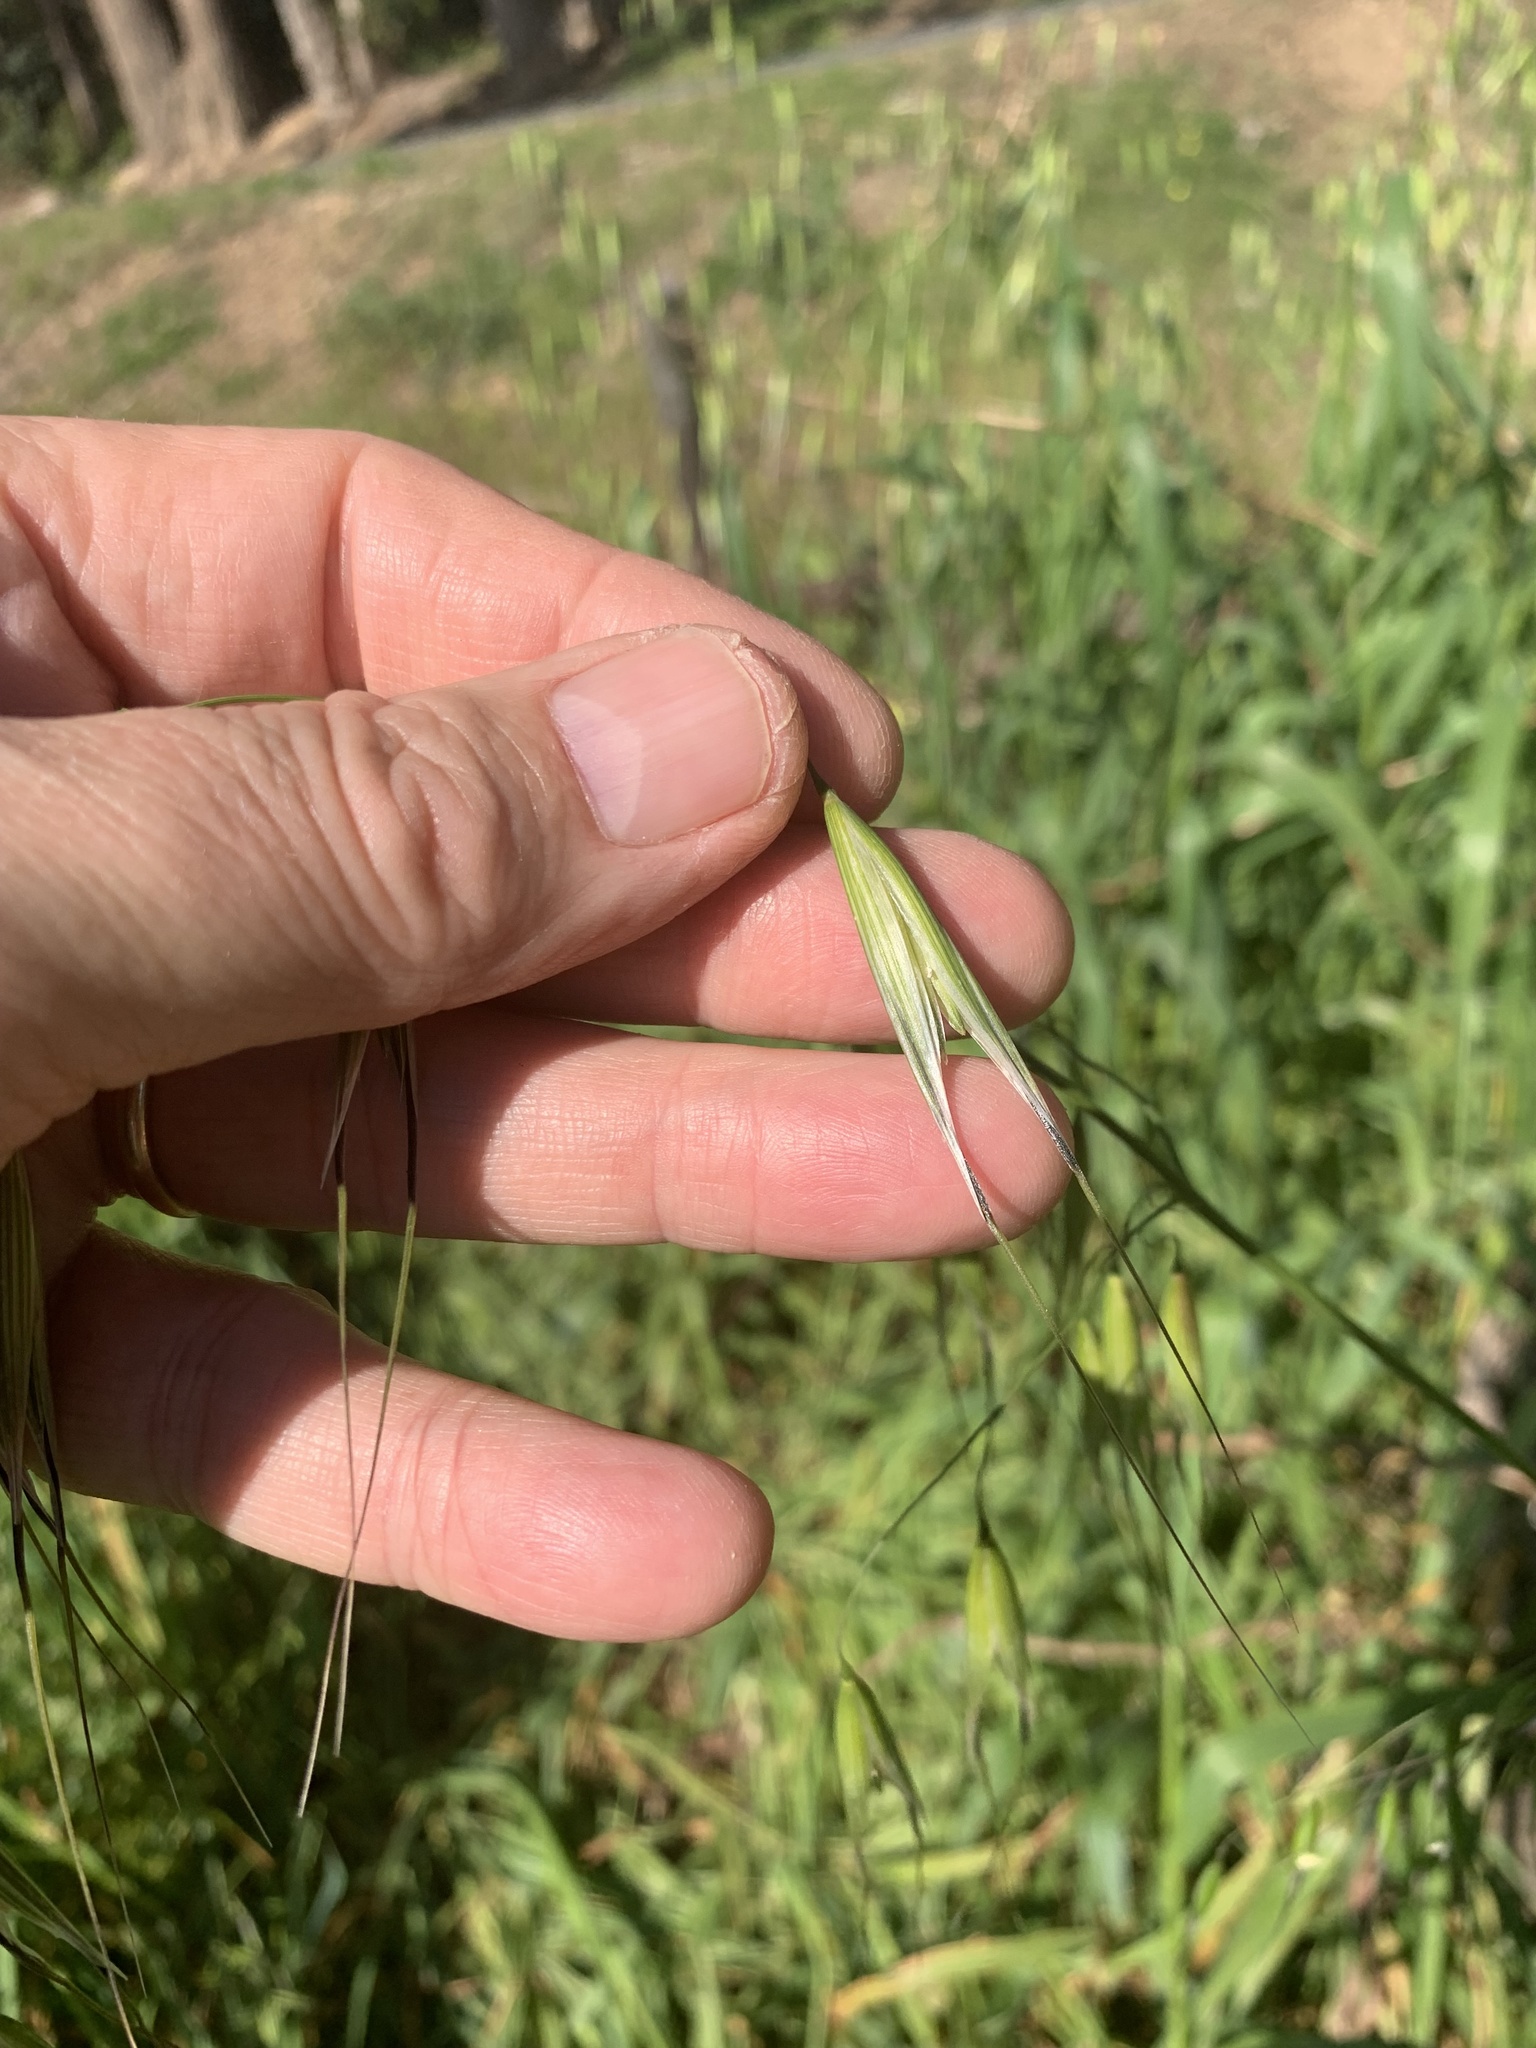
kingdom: Plantae
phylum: Tracheophyta
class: Liliopsida
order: Poales
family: Poaceae
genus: Avena
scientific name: Avena fatua
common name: Wild oat
